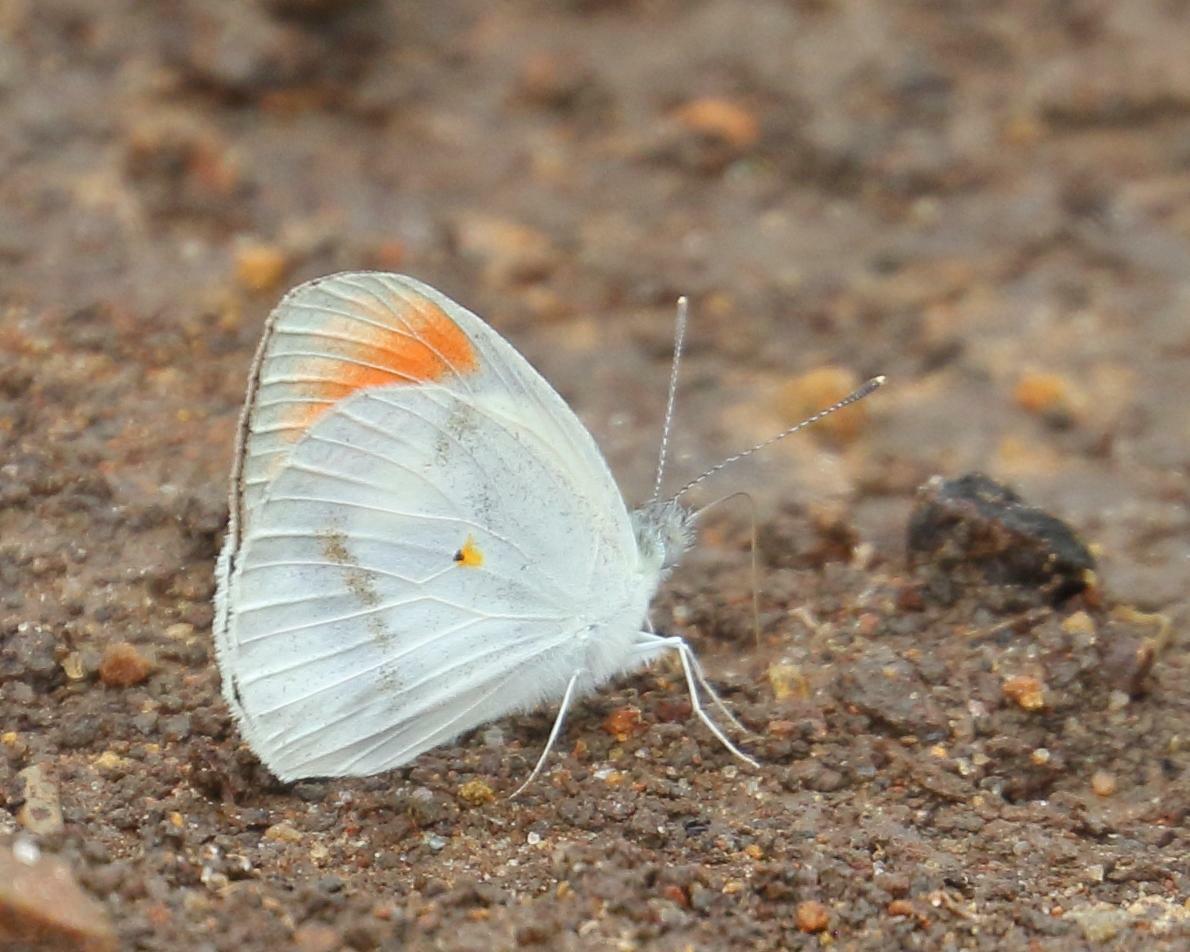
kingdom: Animalia
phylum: Arthropoda
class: Insecta
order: Lepidoptera
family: Pieridae
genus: Colotis
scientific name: Colotis euippe
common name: Round-winged orange tip
